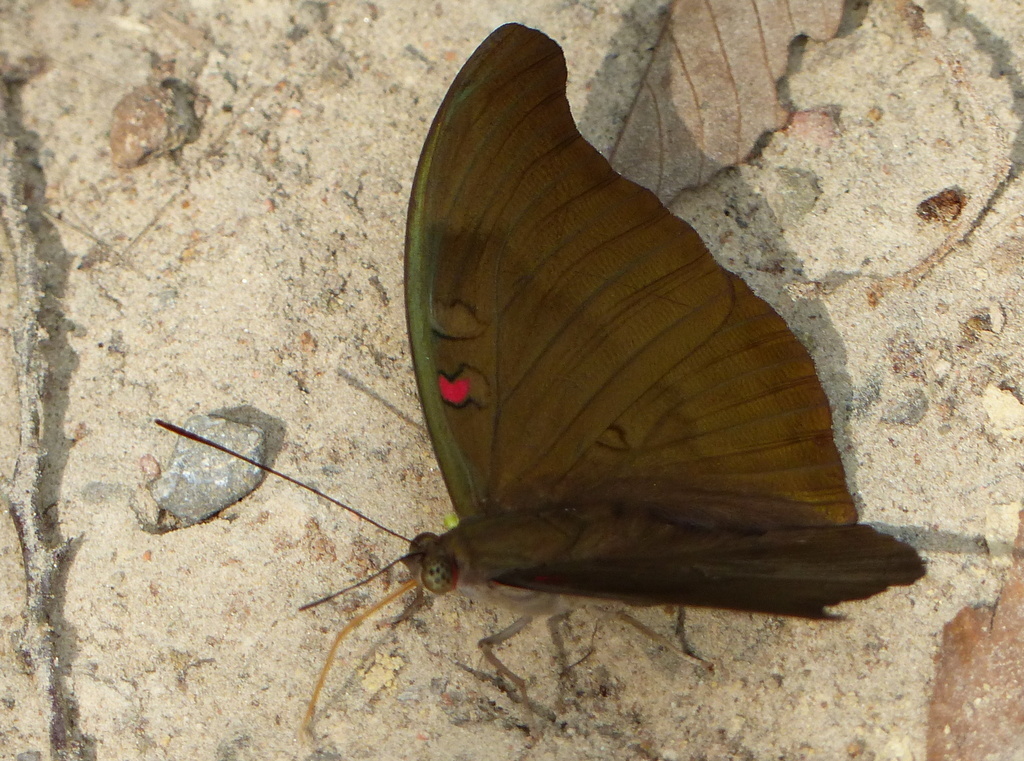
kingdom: Animalia
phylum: Arthropoda
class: Insecta
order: Lepidoptera
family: Nymphalidae
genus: Euthalia
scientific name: Euthalia Dophla evelina
